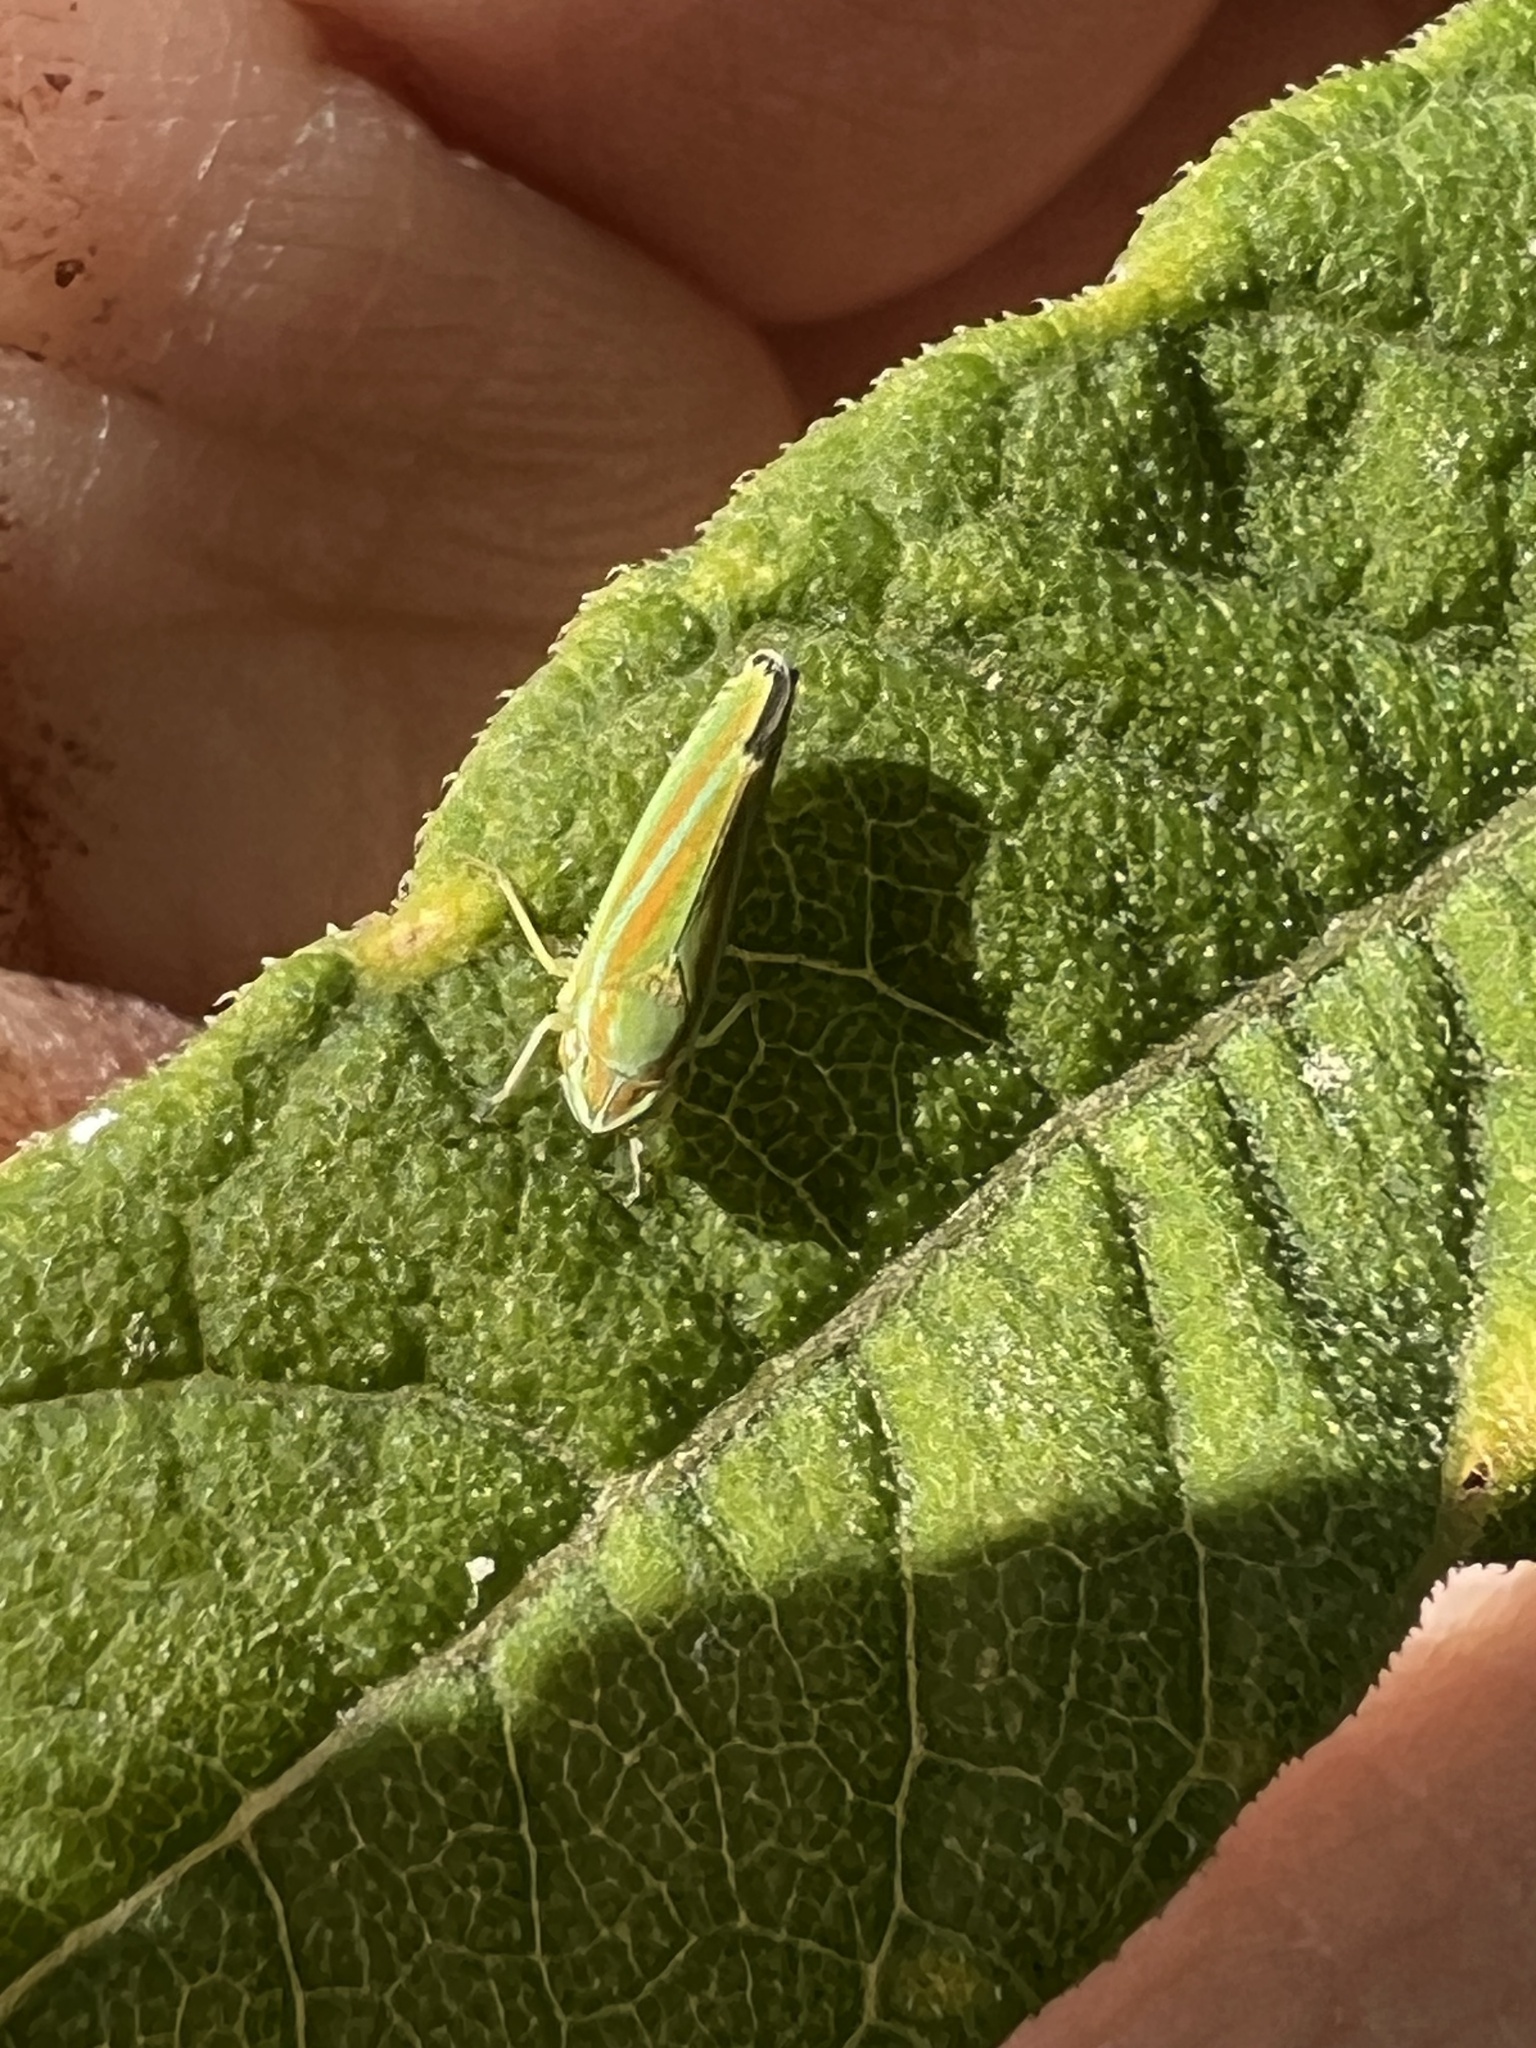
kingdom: Animalia
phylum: Arthropoda
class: Insecta
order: Hemiptera
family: Cicadellidae
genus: Graphocephala
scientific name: Graphocephala versuta
